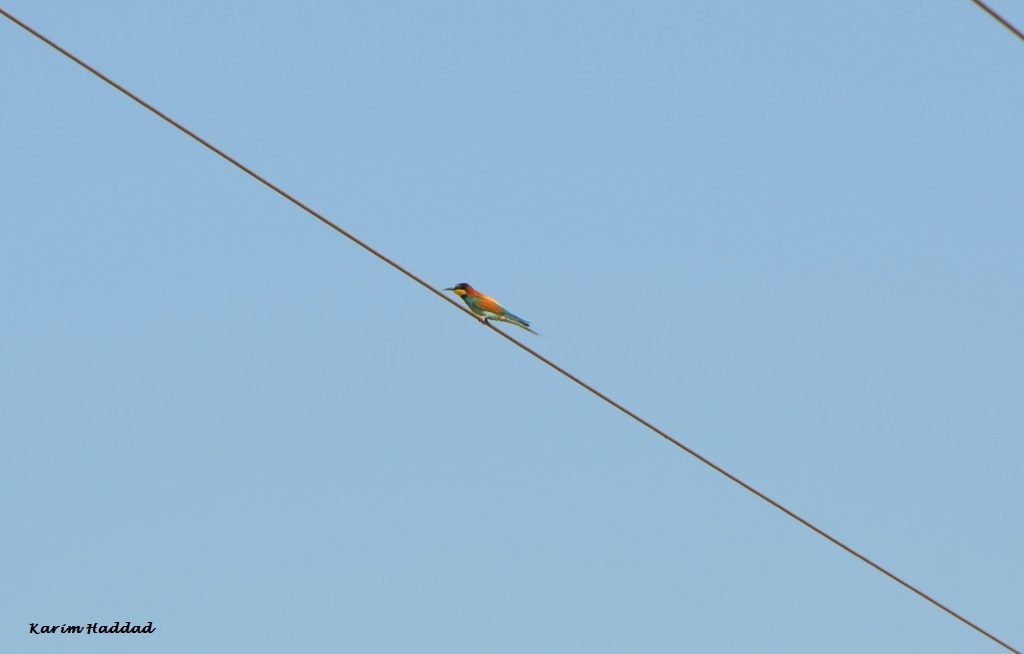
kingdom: Animalia
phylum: Chordata
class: Aves
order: Coraciiformes
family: Meropidae
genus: Merops
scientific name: Merops apiaster
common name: European bee-eater
